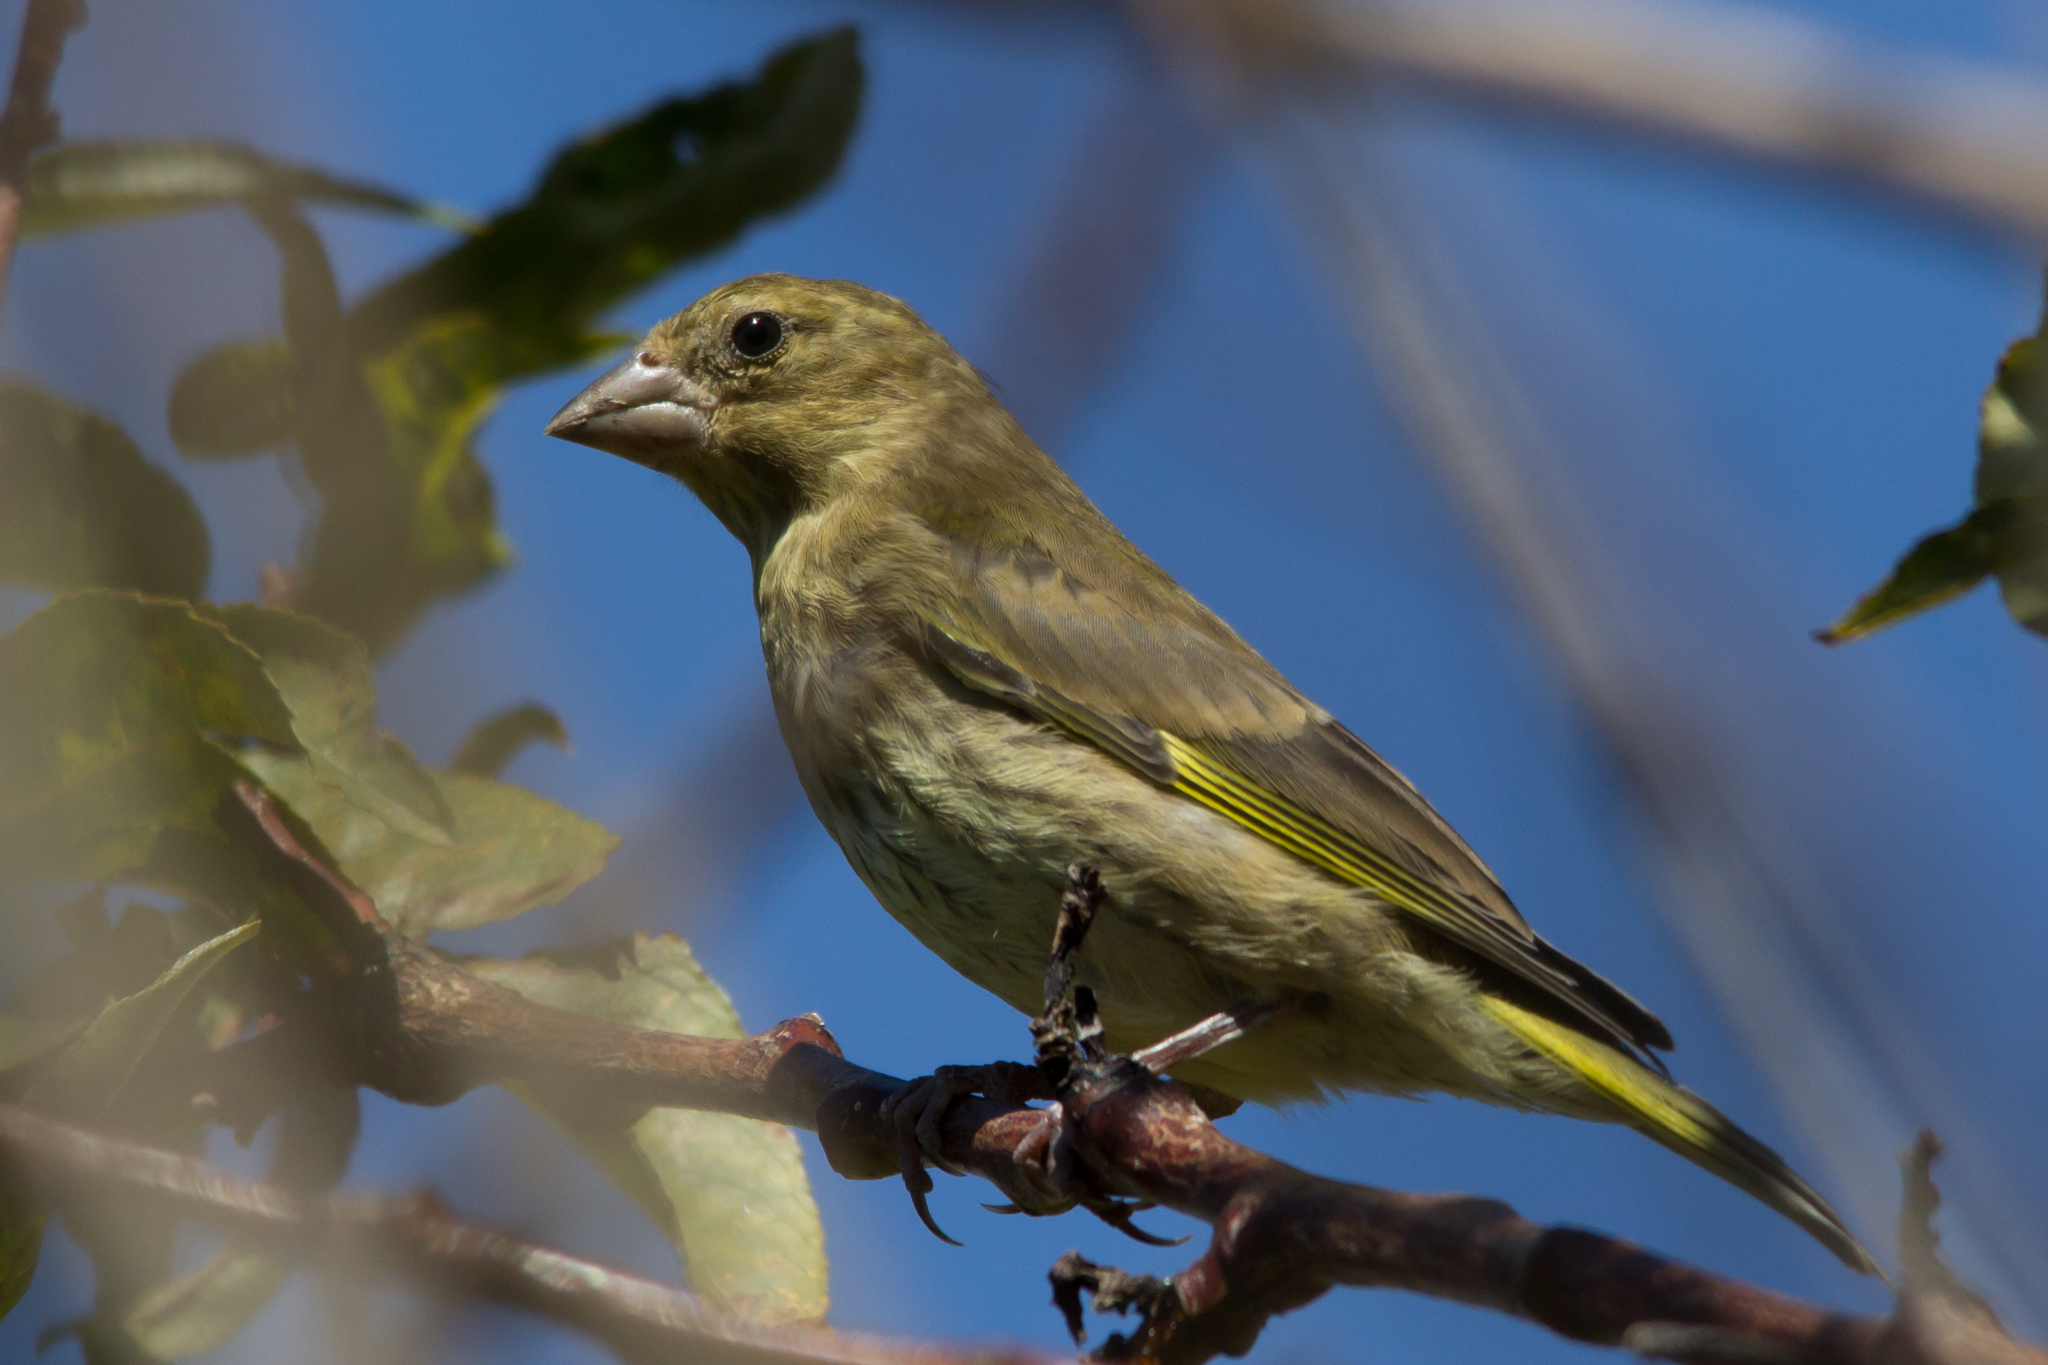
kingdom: Plantae
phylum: Tracheophyta
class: Liliopsida
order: Poales
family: Poaceae
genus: Chloris
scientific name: Chloris chloris
